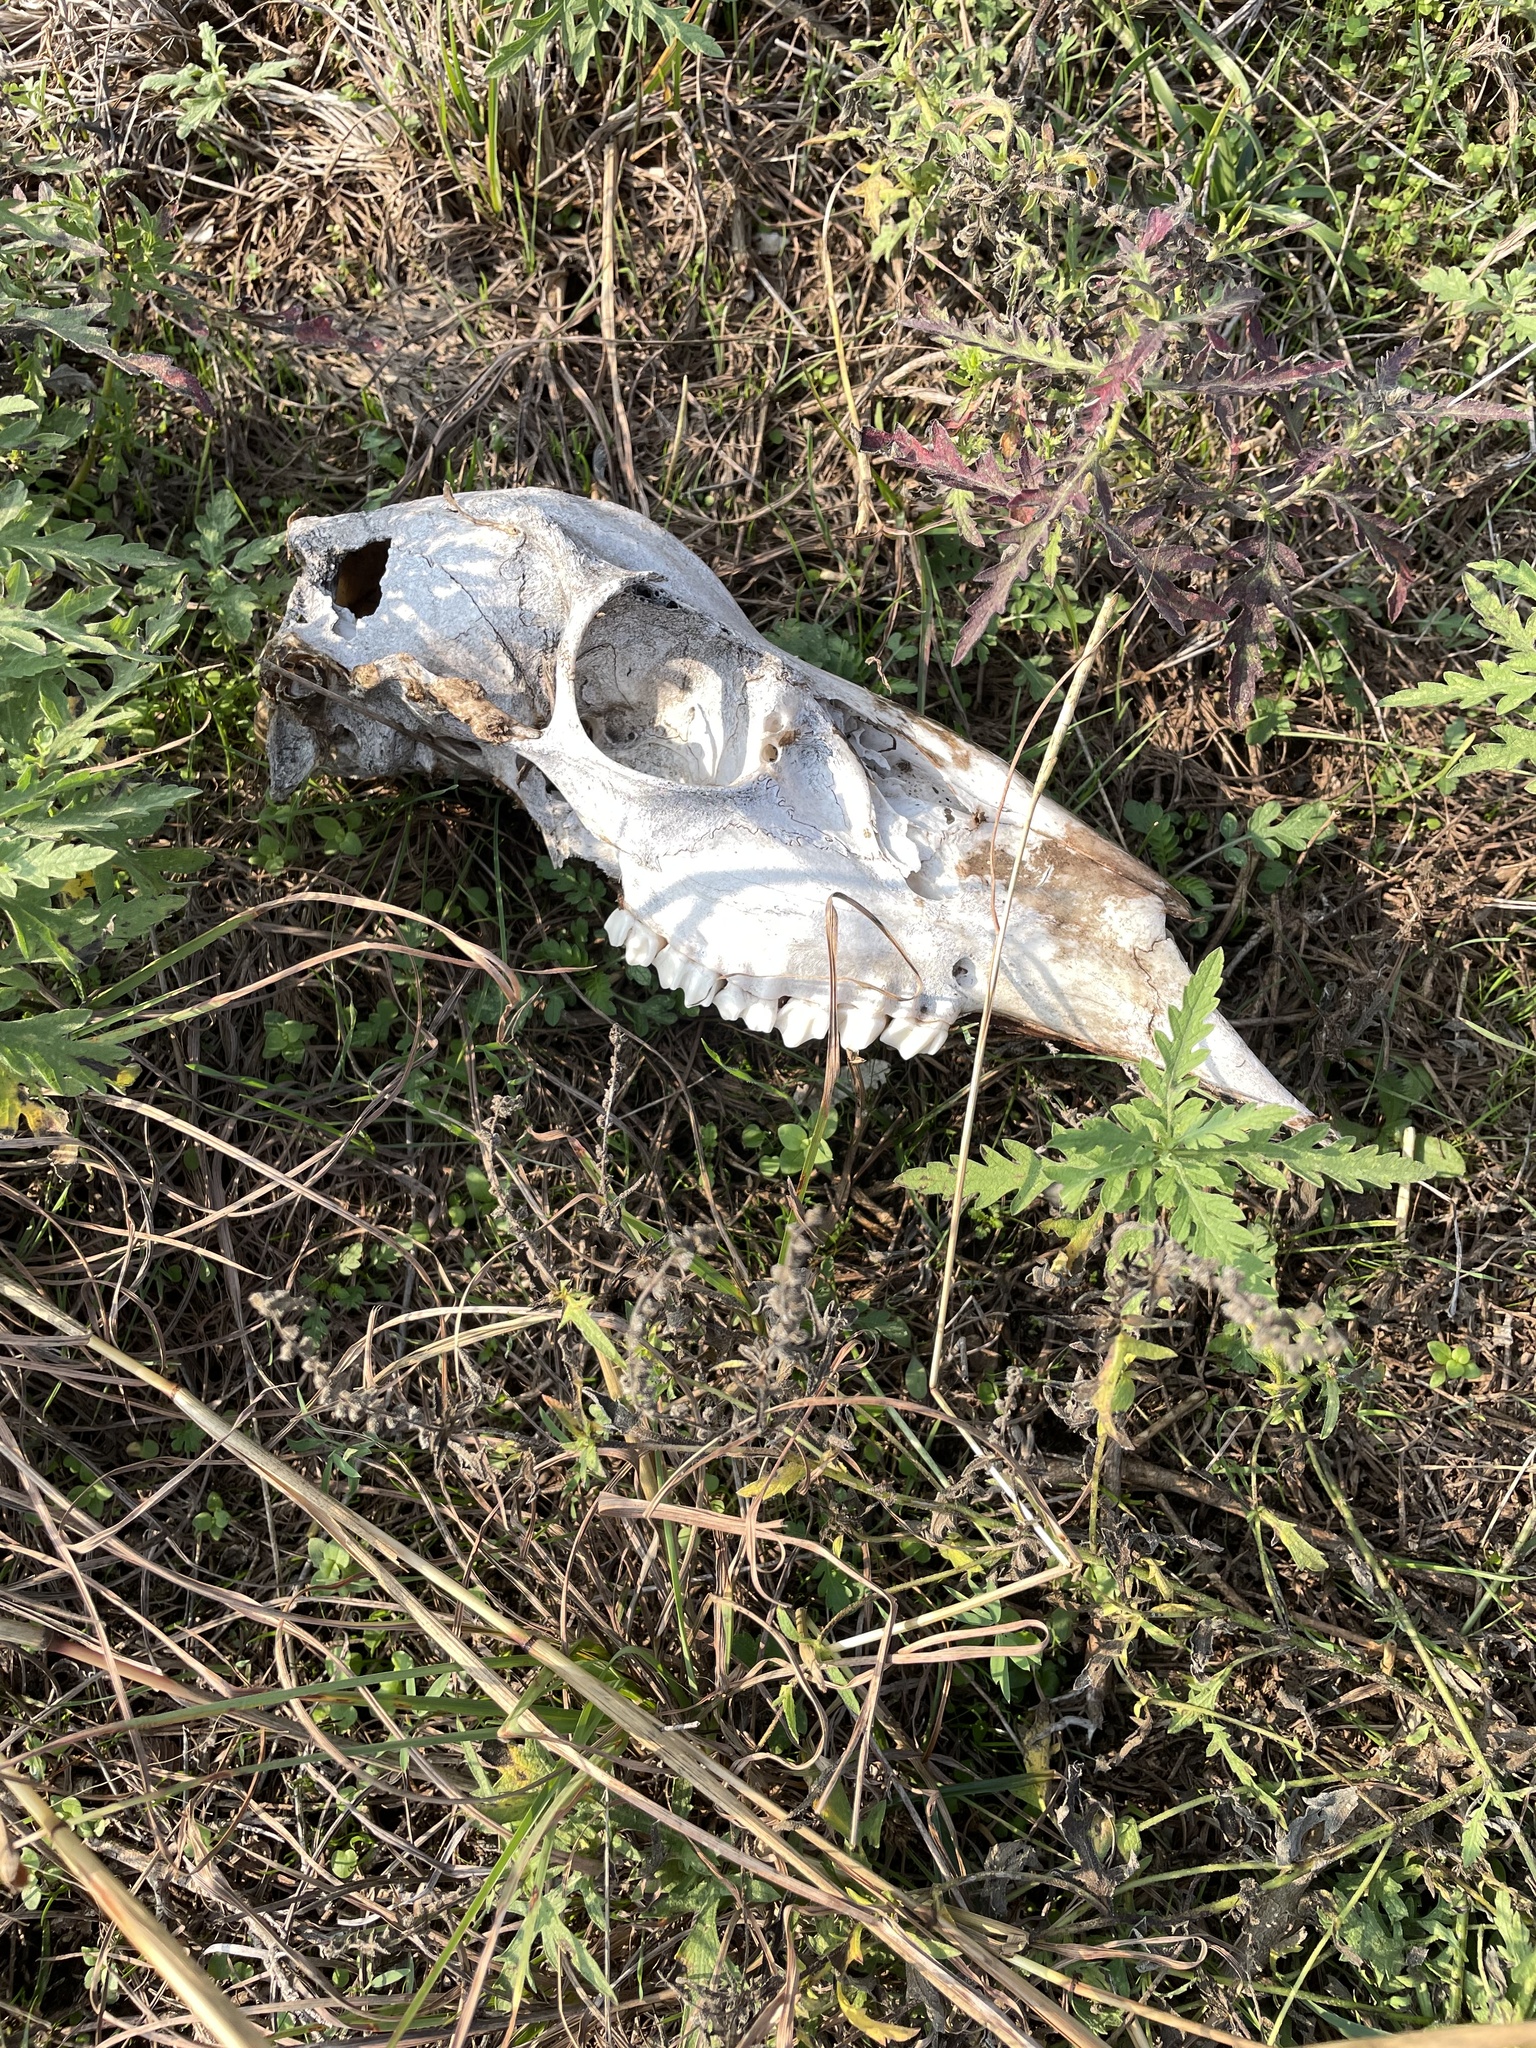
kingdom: Animalia
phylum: Chordata
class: Mammalia
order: Artiodactyla
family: Cervidae
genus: Odocoileus
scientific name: Odocoileus virginianus
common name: White-tailed deer
